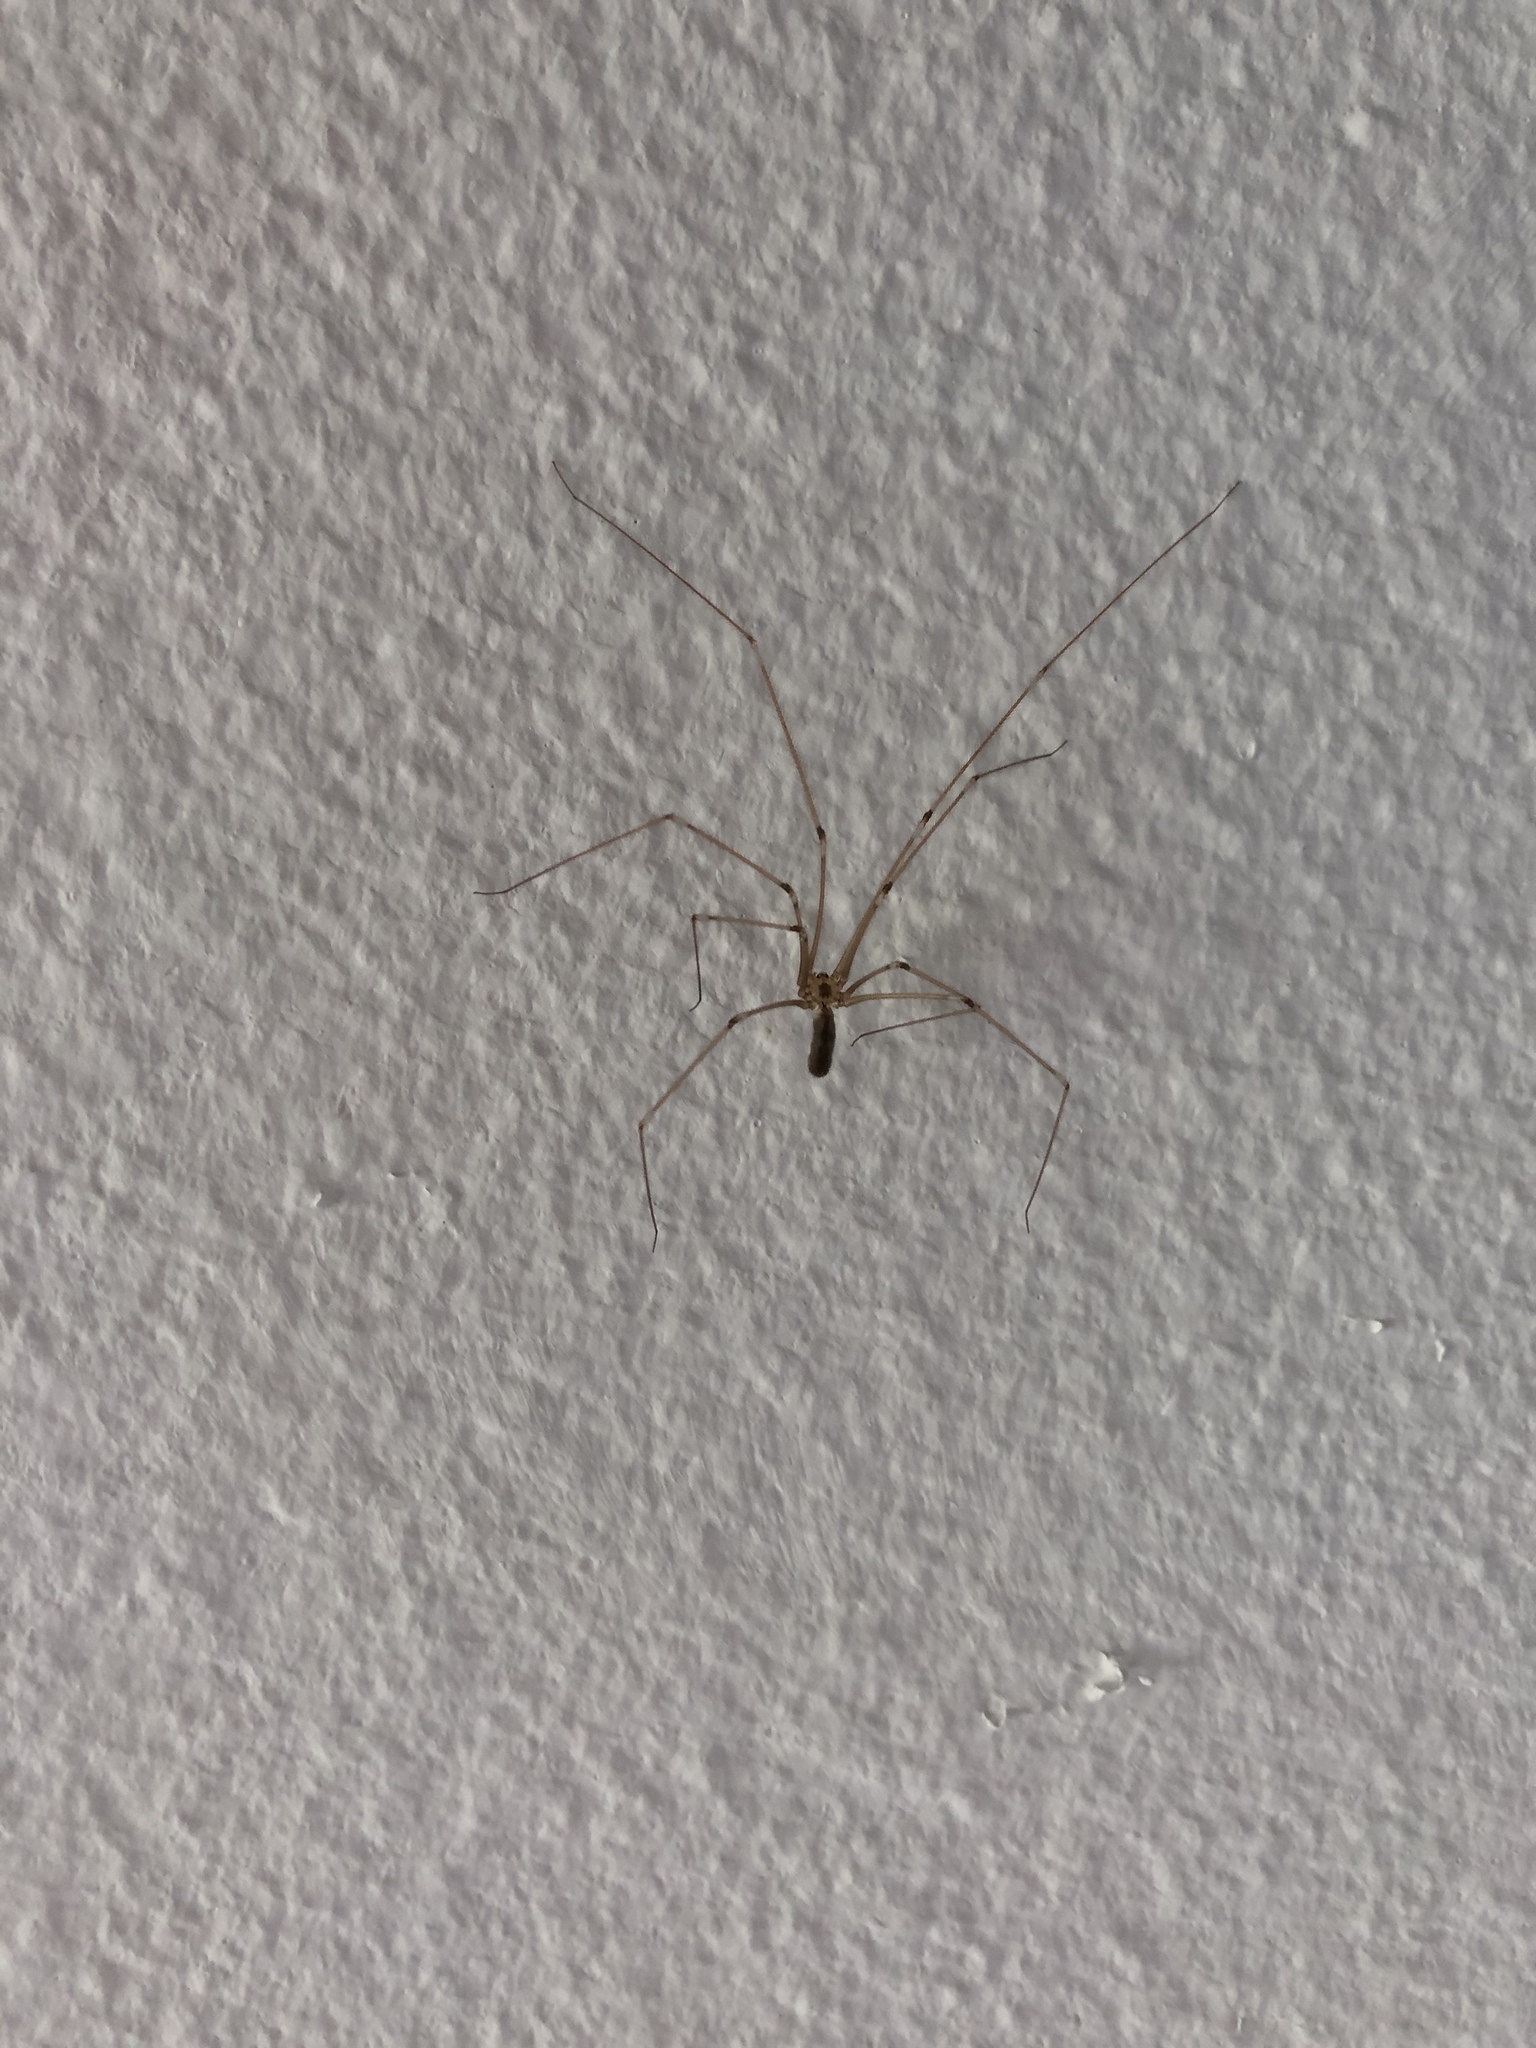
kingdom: Animalia
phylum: Arthropoda
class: Arachnida
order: Araneae
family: Pholcidae
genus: Pholcus
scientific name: Pholcus phalangioides
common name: Longbodied cellar spider
